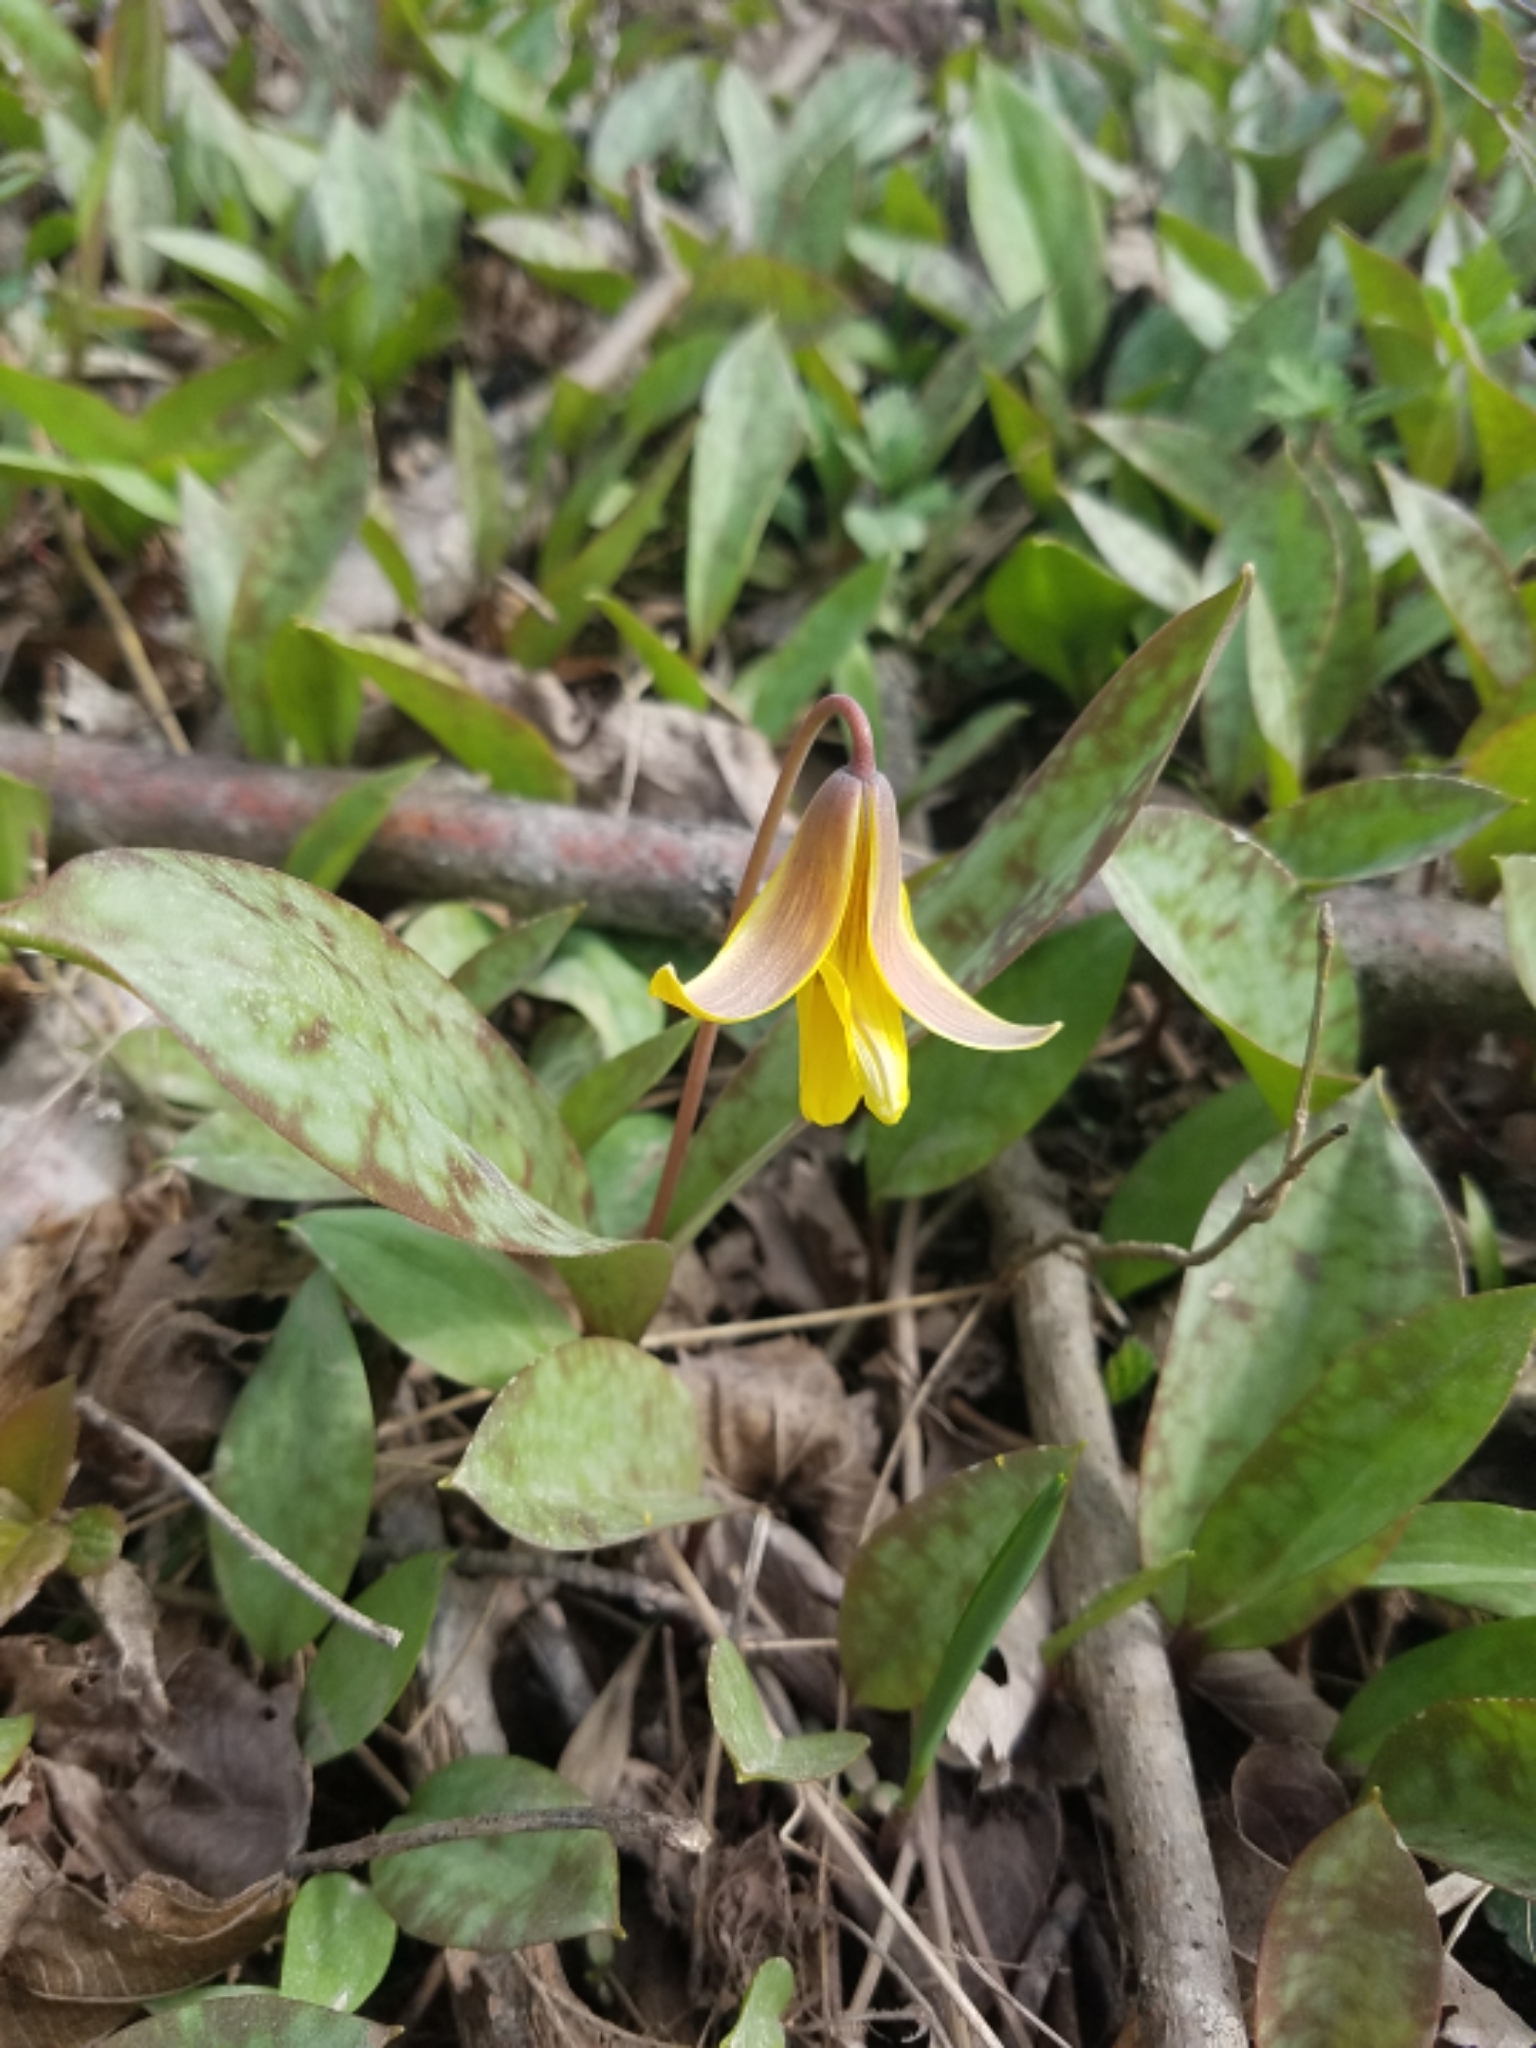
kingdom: Plantae
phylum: Tracheophyta
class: Liliopsida
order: Liliales
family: Liliaceae
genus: Erythronium
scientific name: Erythronium americanum
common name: Yellow adder's-tongue
